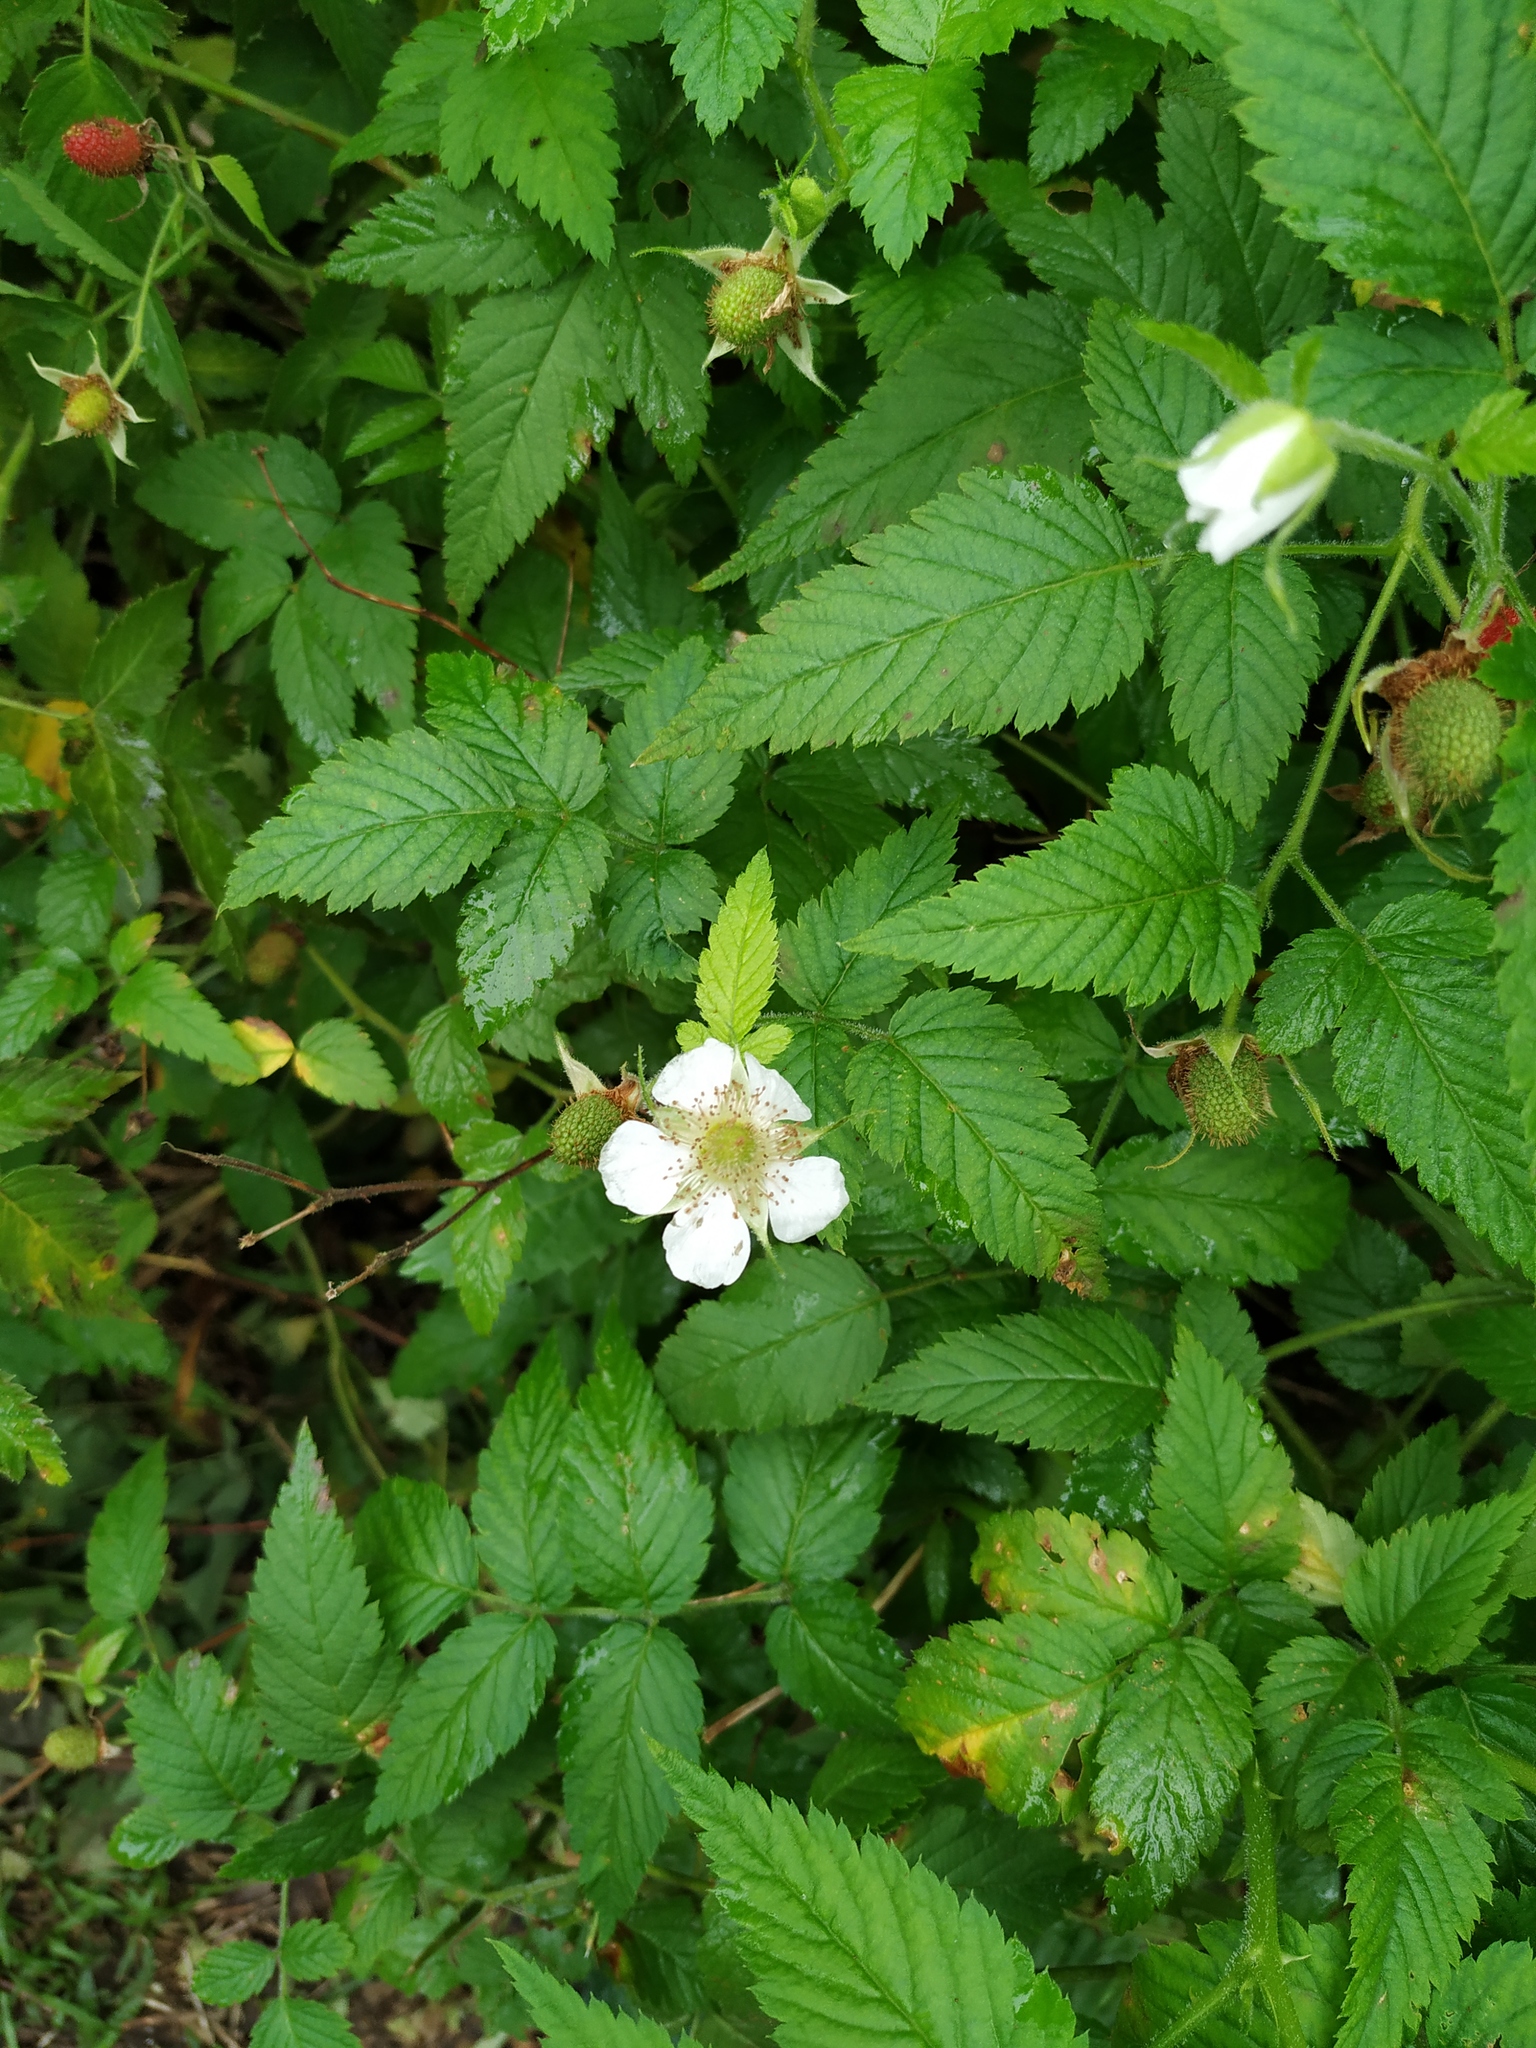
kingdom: Plantae
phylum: Tracheophyta
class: Magnoliopsida
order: Rosales
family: Rosaceae
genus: Rubus
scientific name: Rubus rosifolius
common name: Roseleaf raspberry
